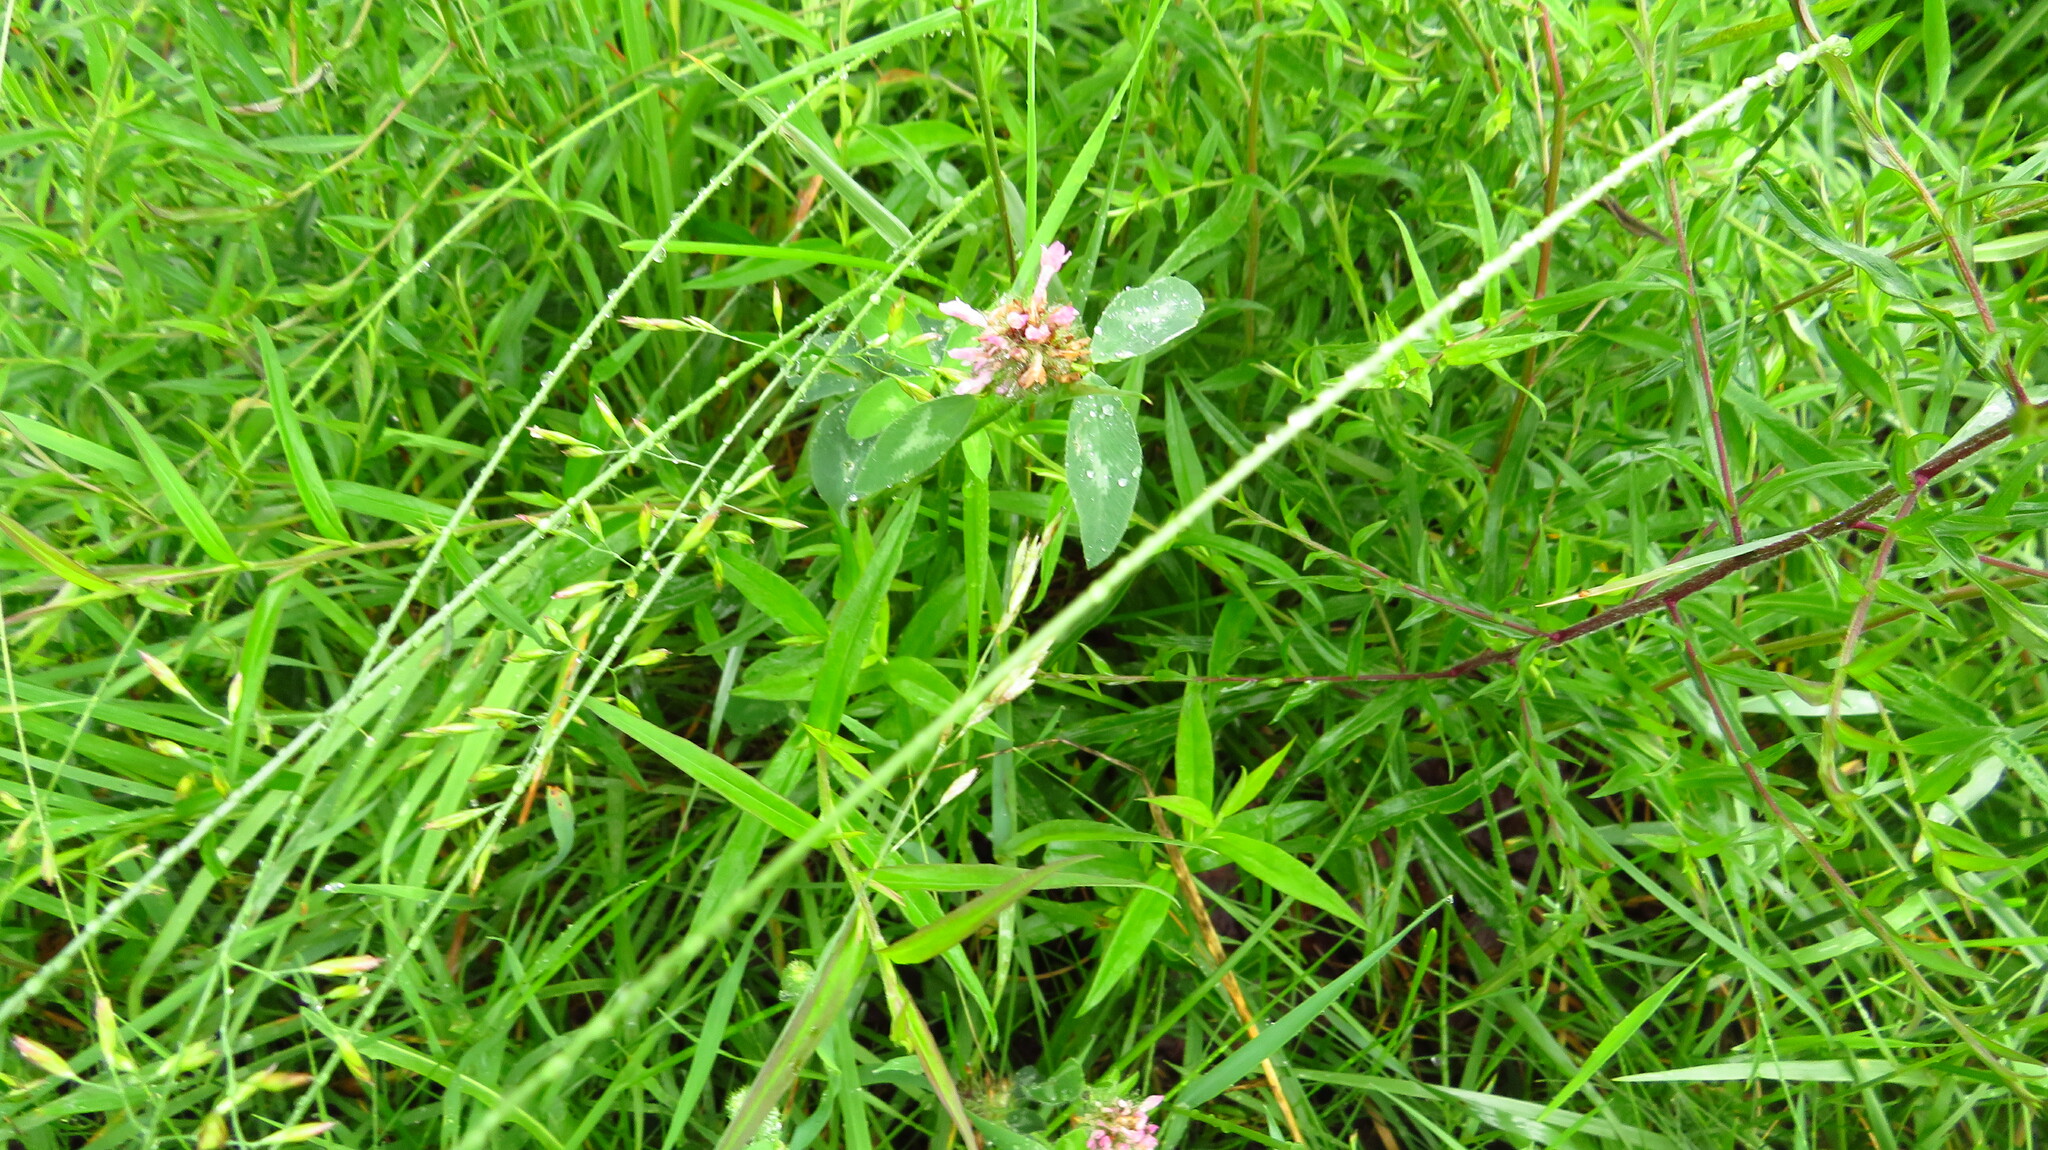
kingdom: Plantae
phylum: Tracheophyta
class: Magnoliopsida
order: Fabales
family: Fabaceae
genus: Trifolium
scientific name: Trifolium pratense
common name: Red clover
